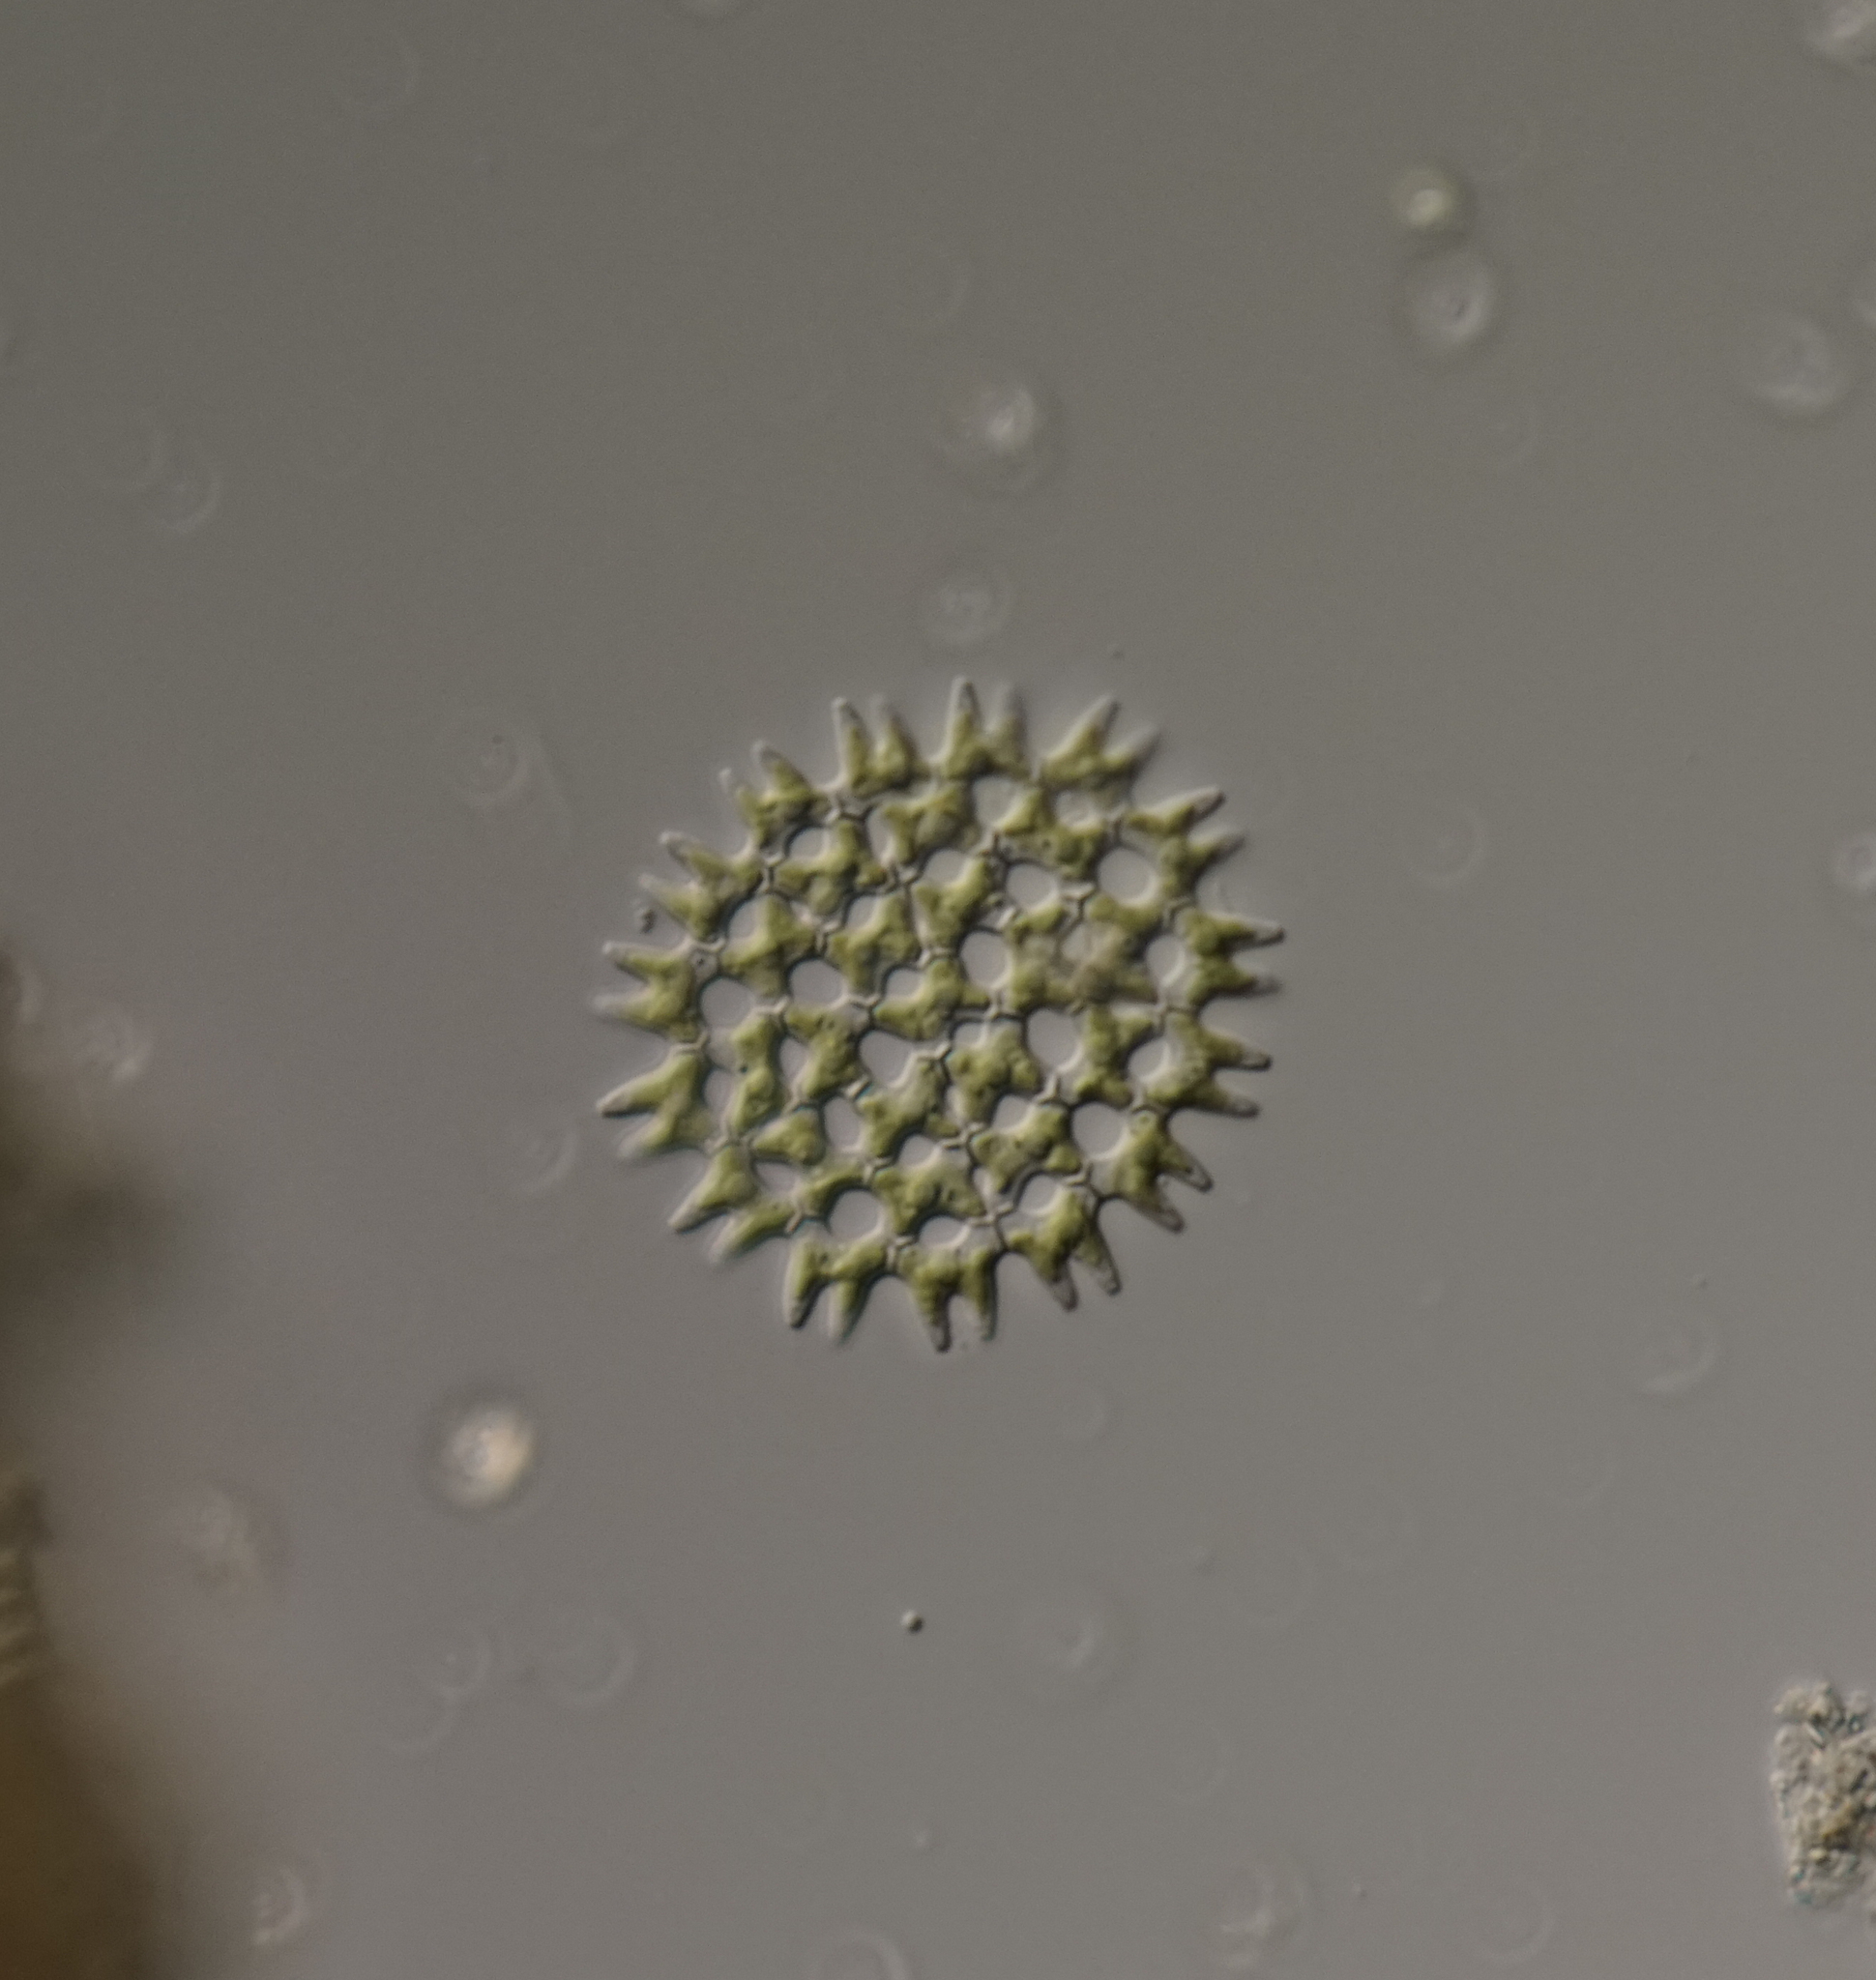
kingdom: Plantae
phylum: Chlorophyta
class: Chlorophyceae
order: Sphaeropleales
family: Hydrodictyaceae
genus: Pediastrum
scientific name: Pediastrum duplex
